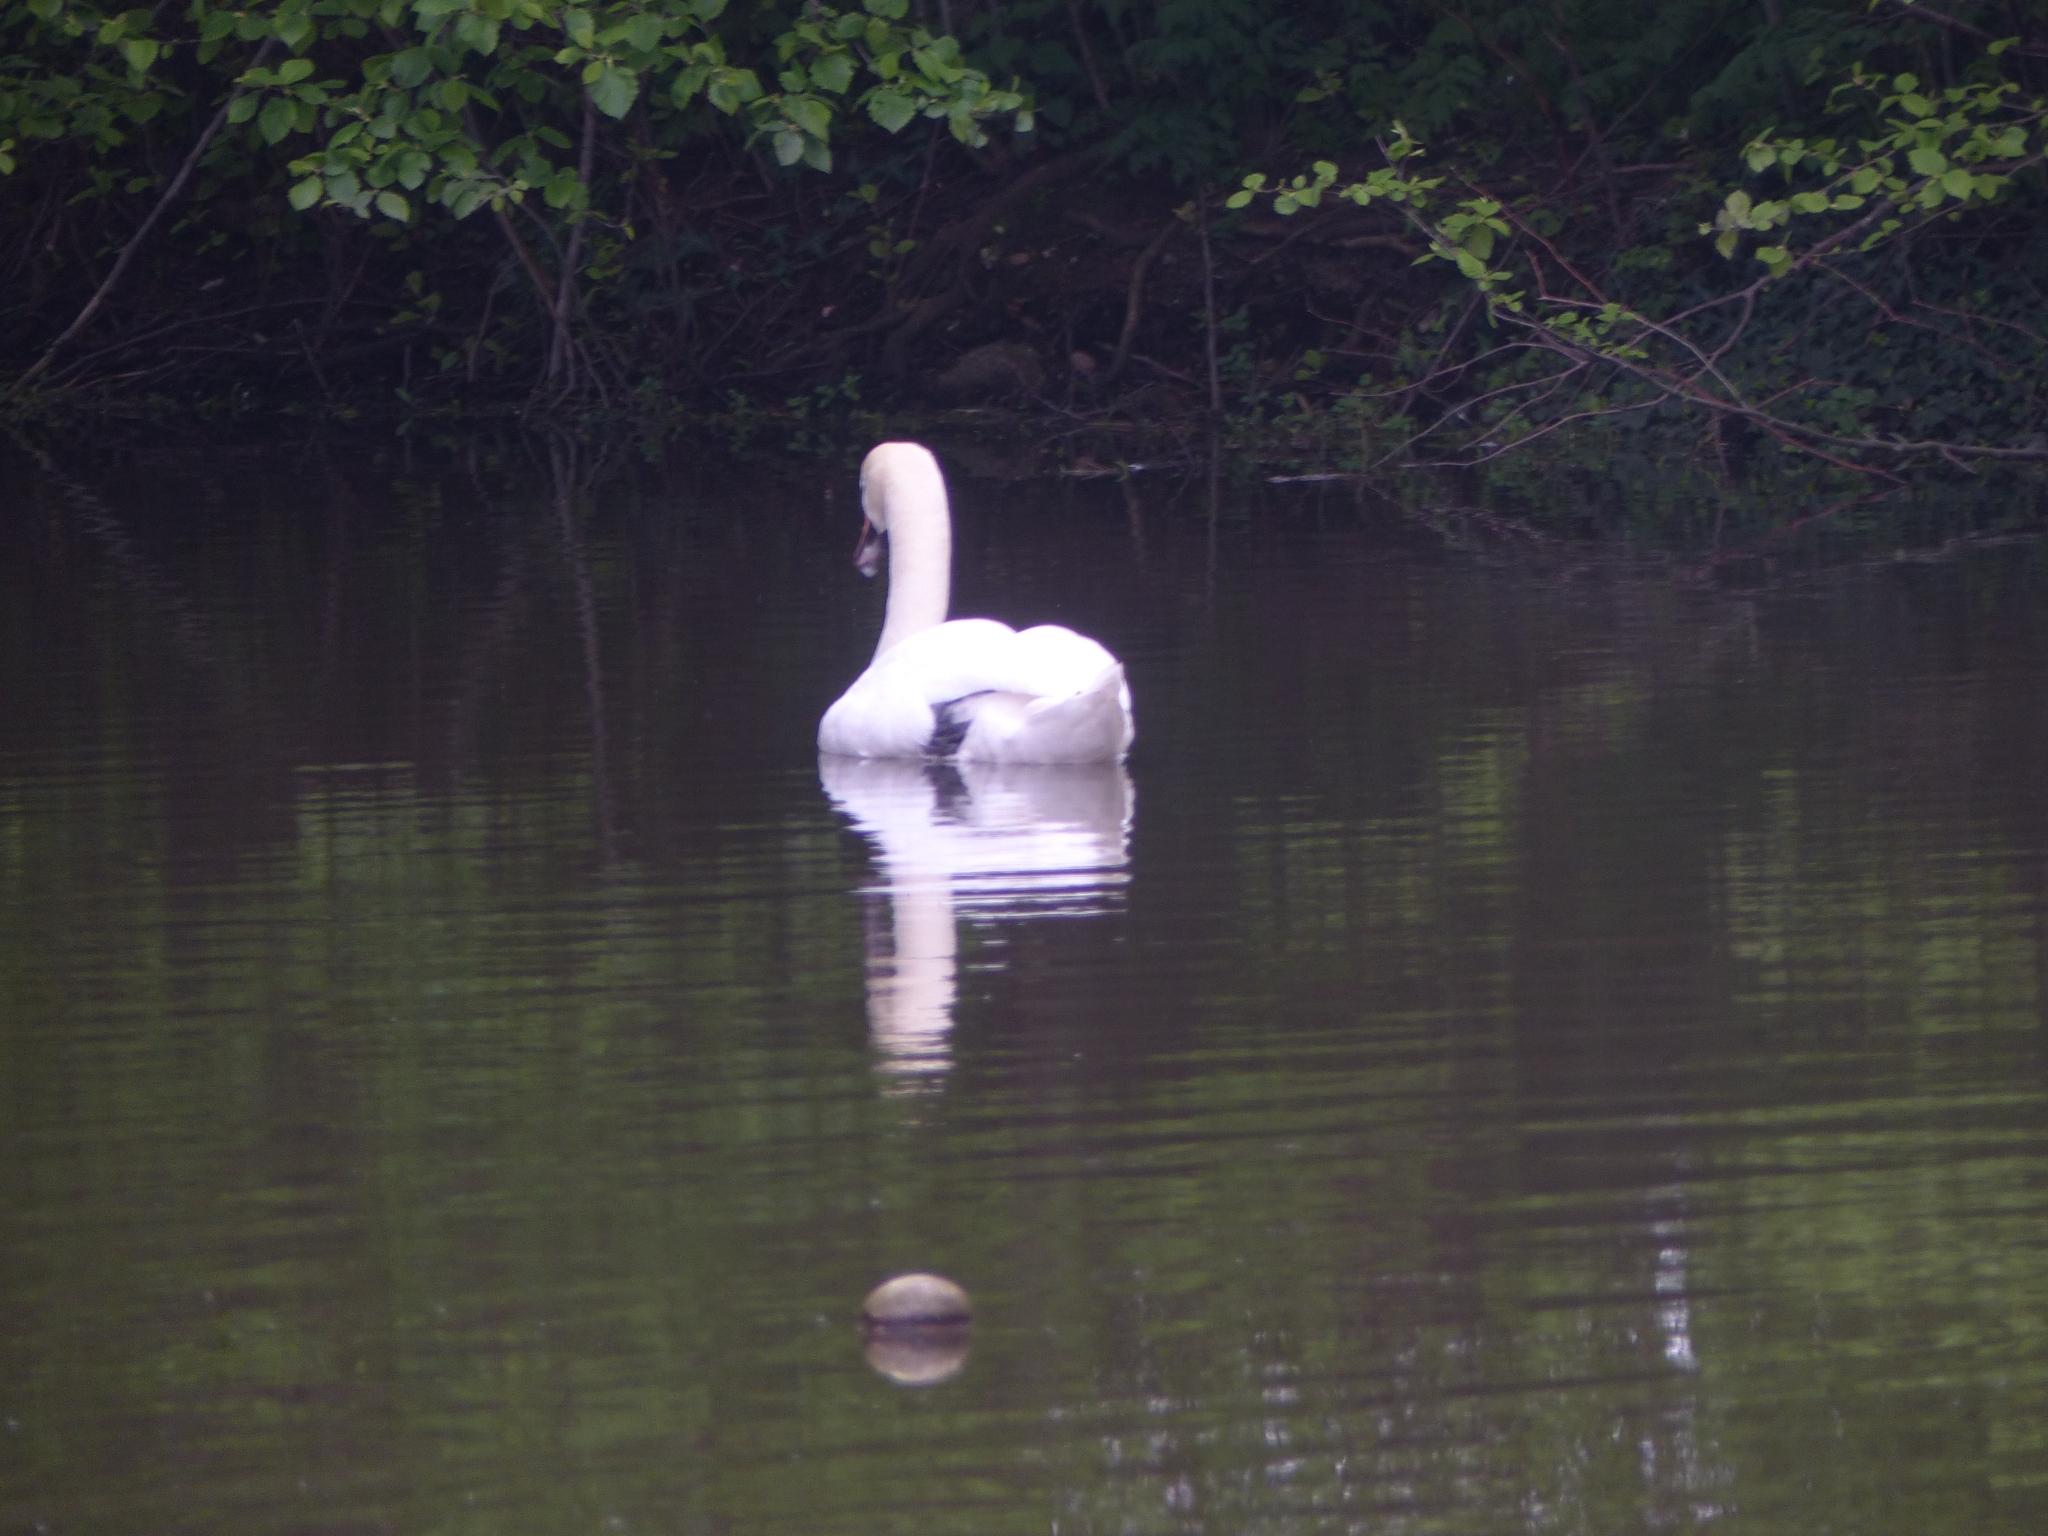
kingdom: Animalia
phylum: Chordata
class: Aves
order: Anseriformes
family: Anatidae
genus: Cygnus
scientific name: Cygnus olor
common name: Mute swan
